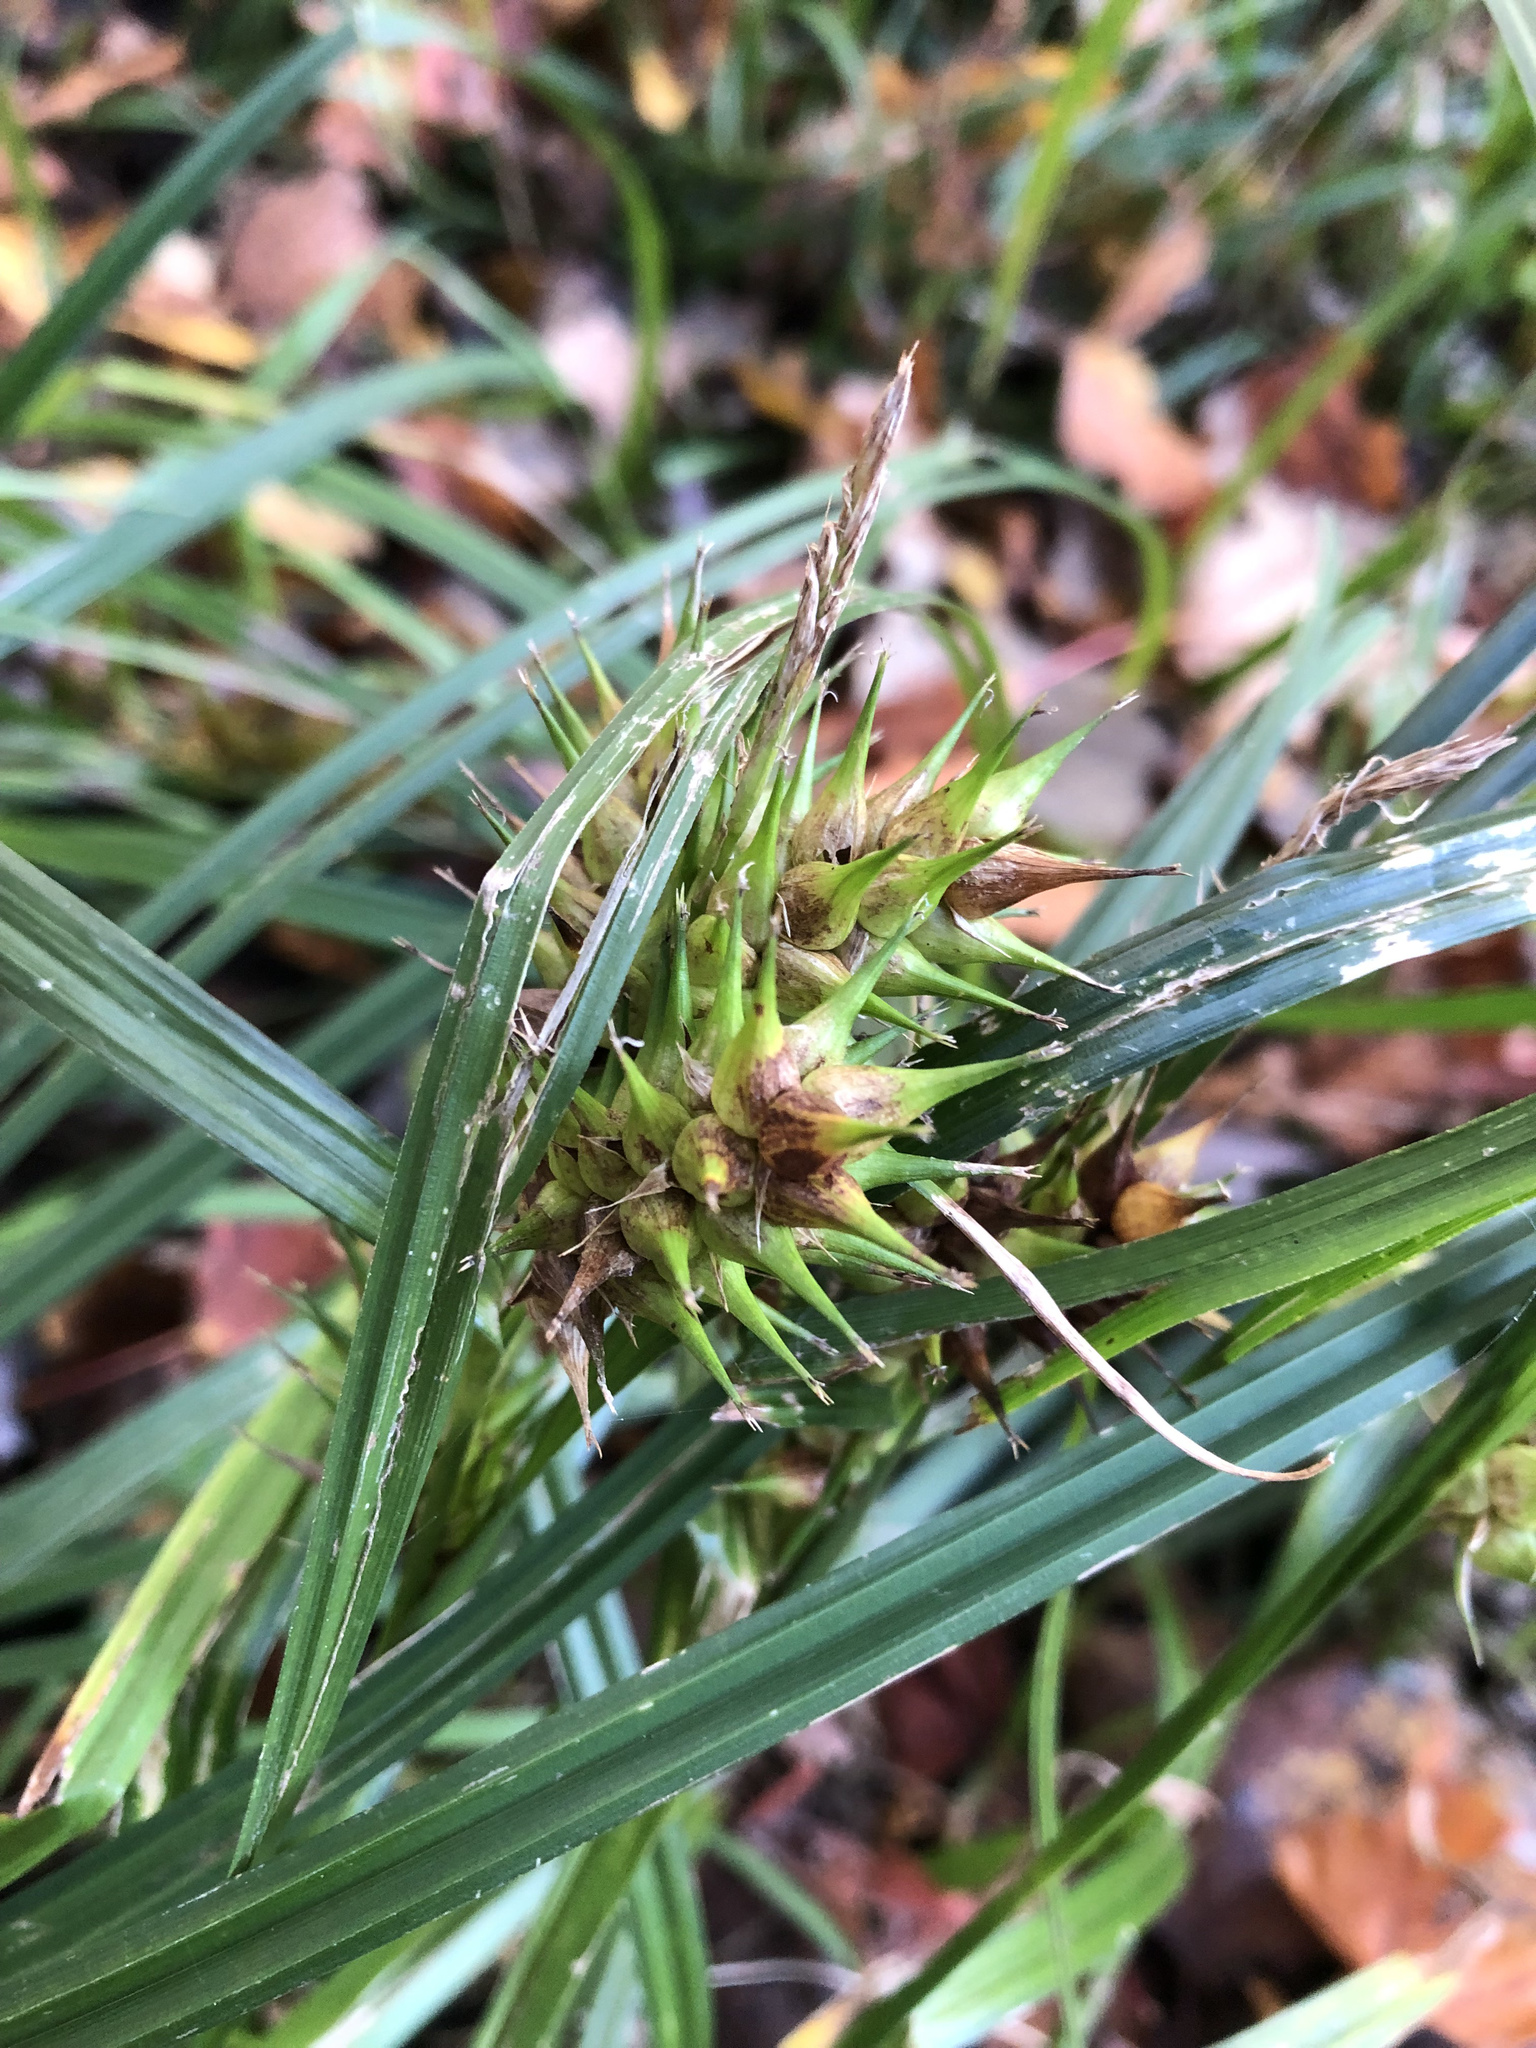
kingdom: Plantae
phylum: Tracheophyta
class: Liliopsida
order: Poales
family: Cyperaceae
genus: Carex
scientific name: Carex lupulina
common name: Hop sedge
